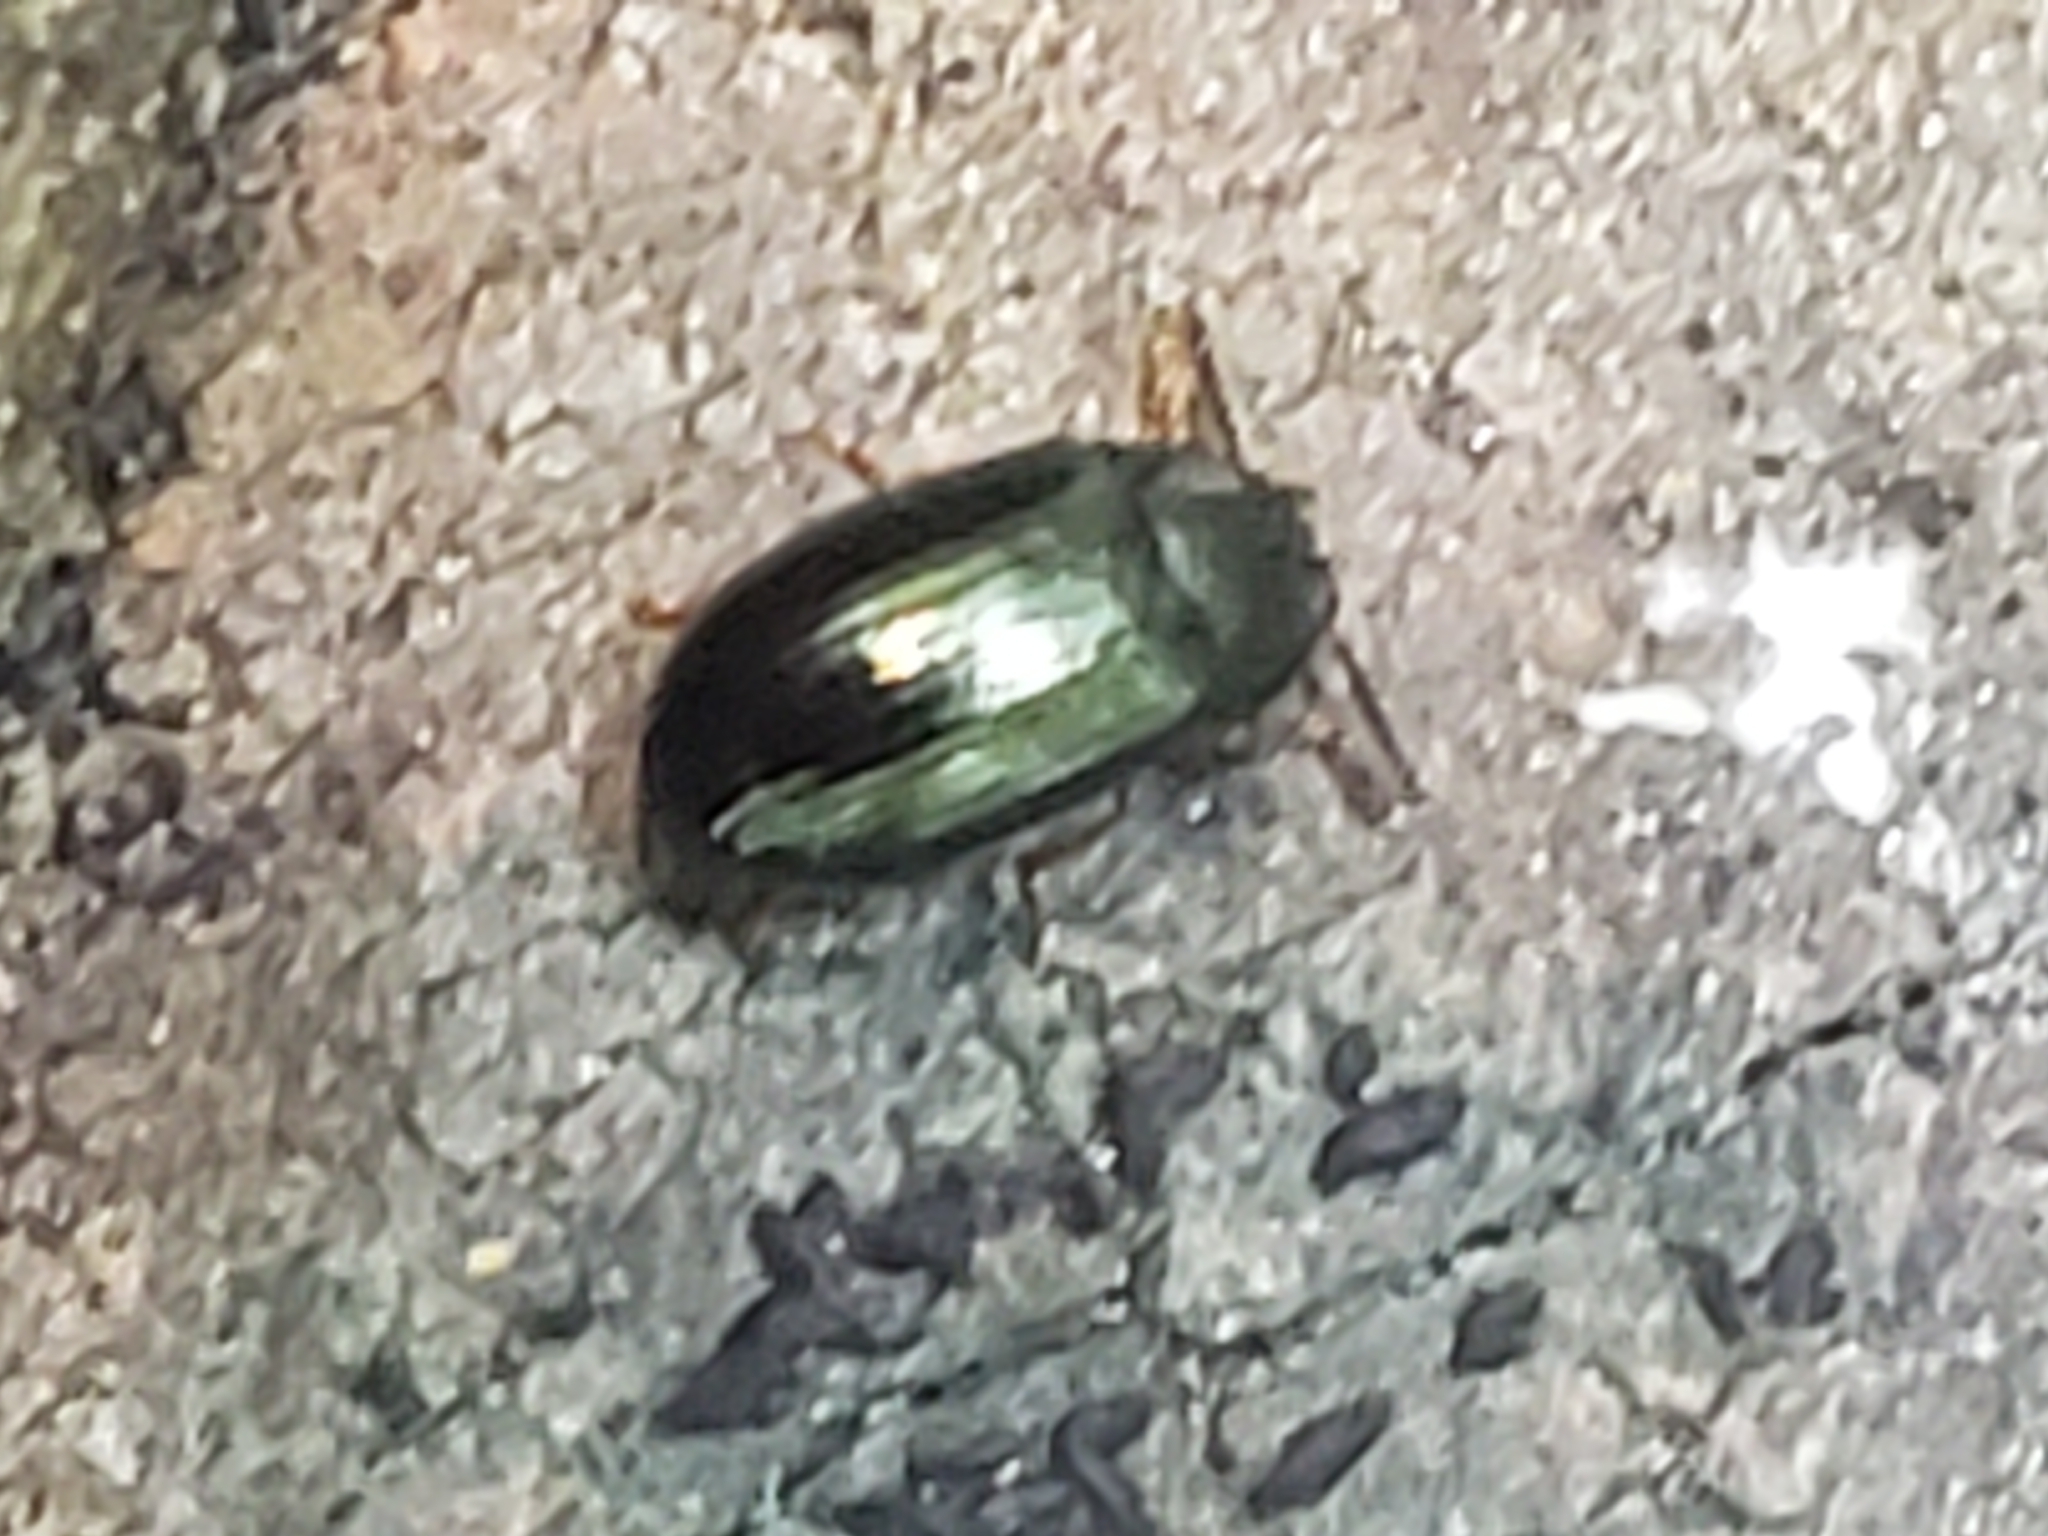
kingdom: Animalia
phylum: Arthropoda
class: Insecta
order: Coleoptera
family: Tenebrionidae
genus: Neomida
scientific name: Neomida bicornis
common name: Two-horned darkling beetle
